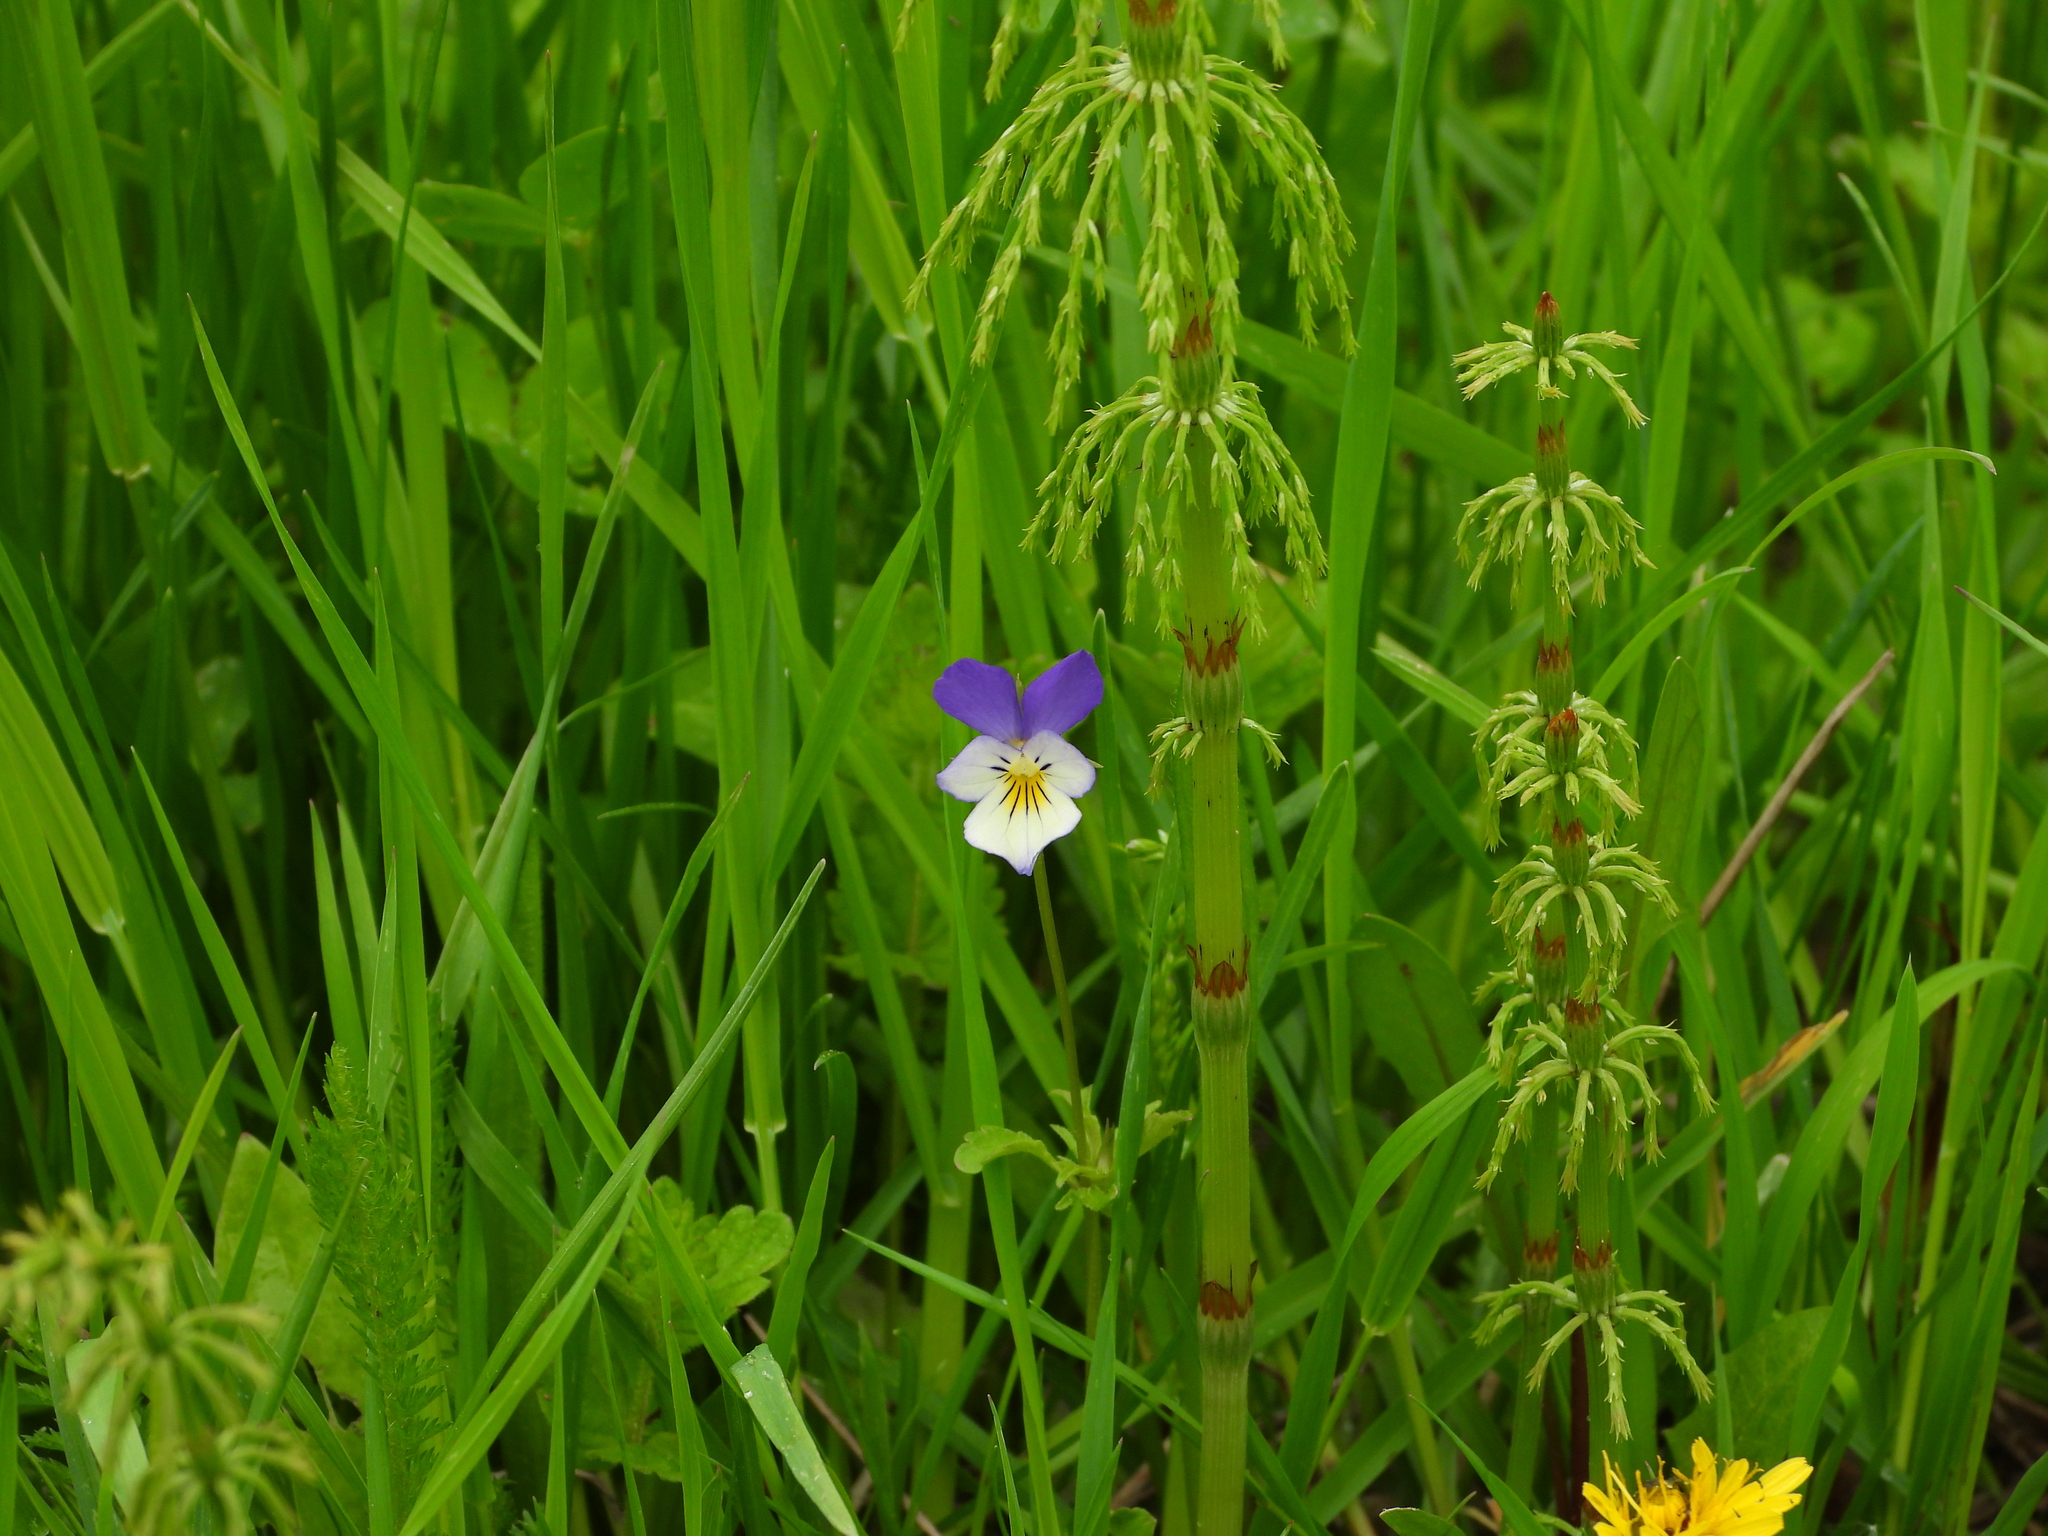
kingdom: Plantae
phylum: Tracheophyta
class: Magnoliopsida
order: Malpighiales
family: Violaceae
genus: Viola
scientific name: Viola tricolor
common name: Pansy
